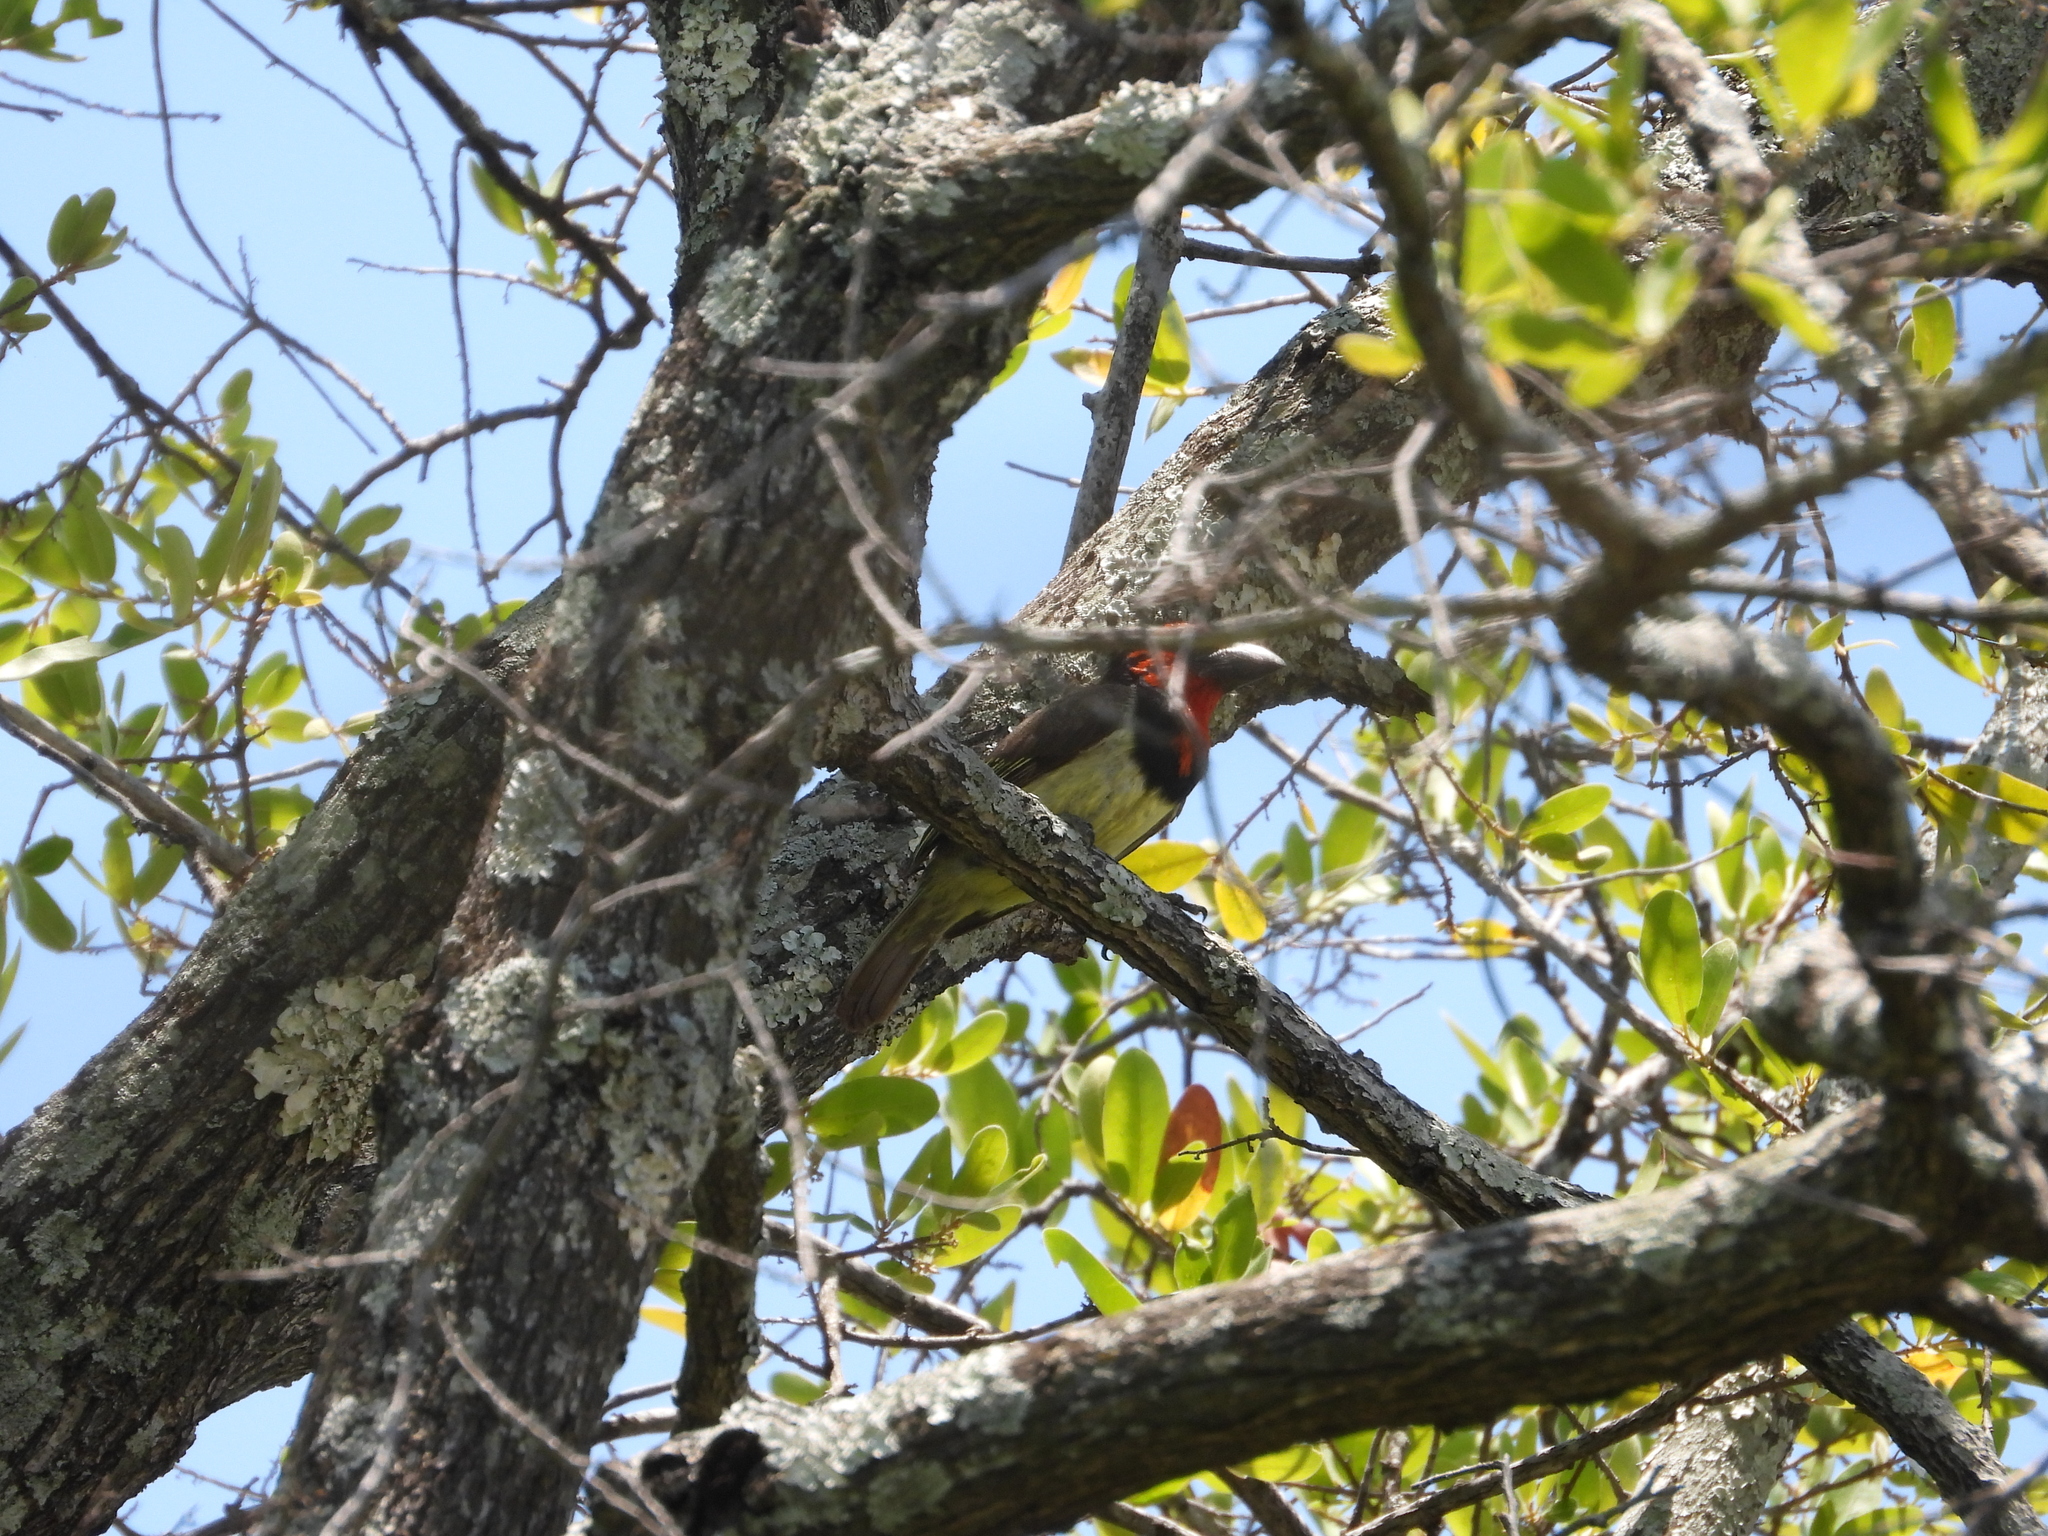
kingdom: Animalia
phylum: Chordata
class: Aves
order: Piciformes
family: Lybiidae
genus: Lybius
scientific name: Lybius torquatus
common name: Black-collared barbet
